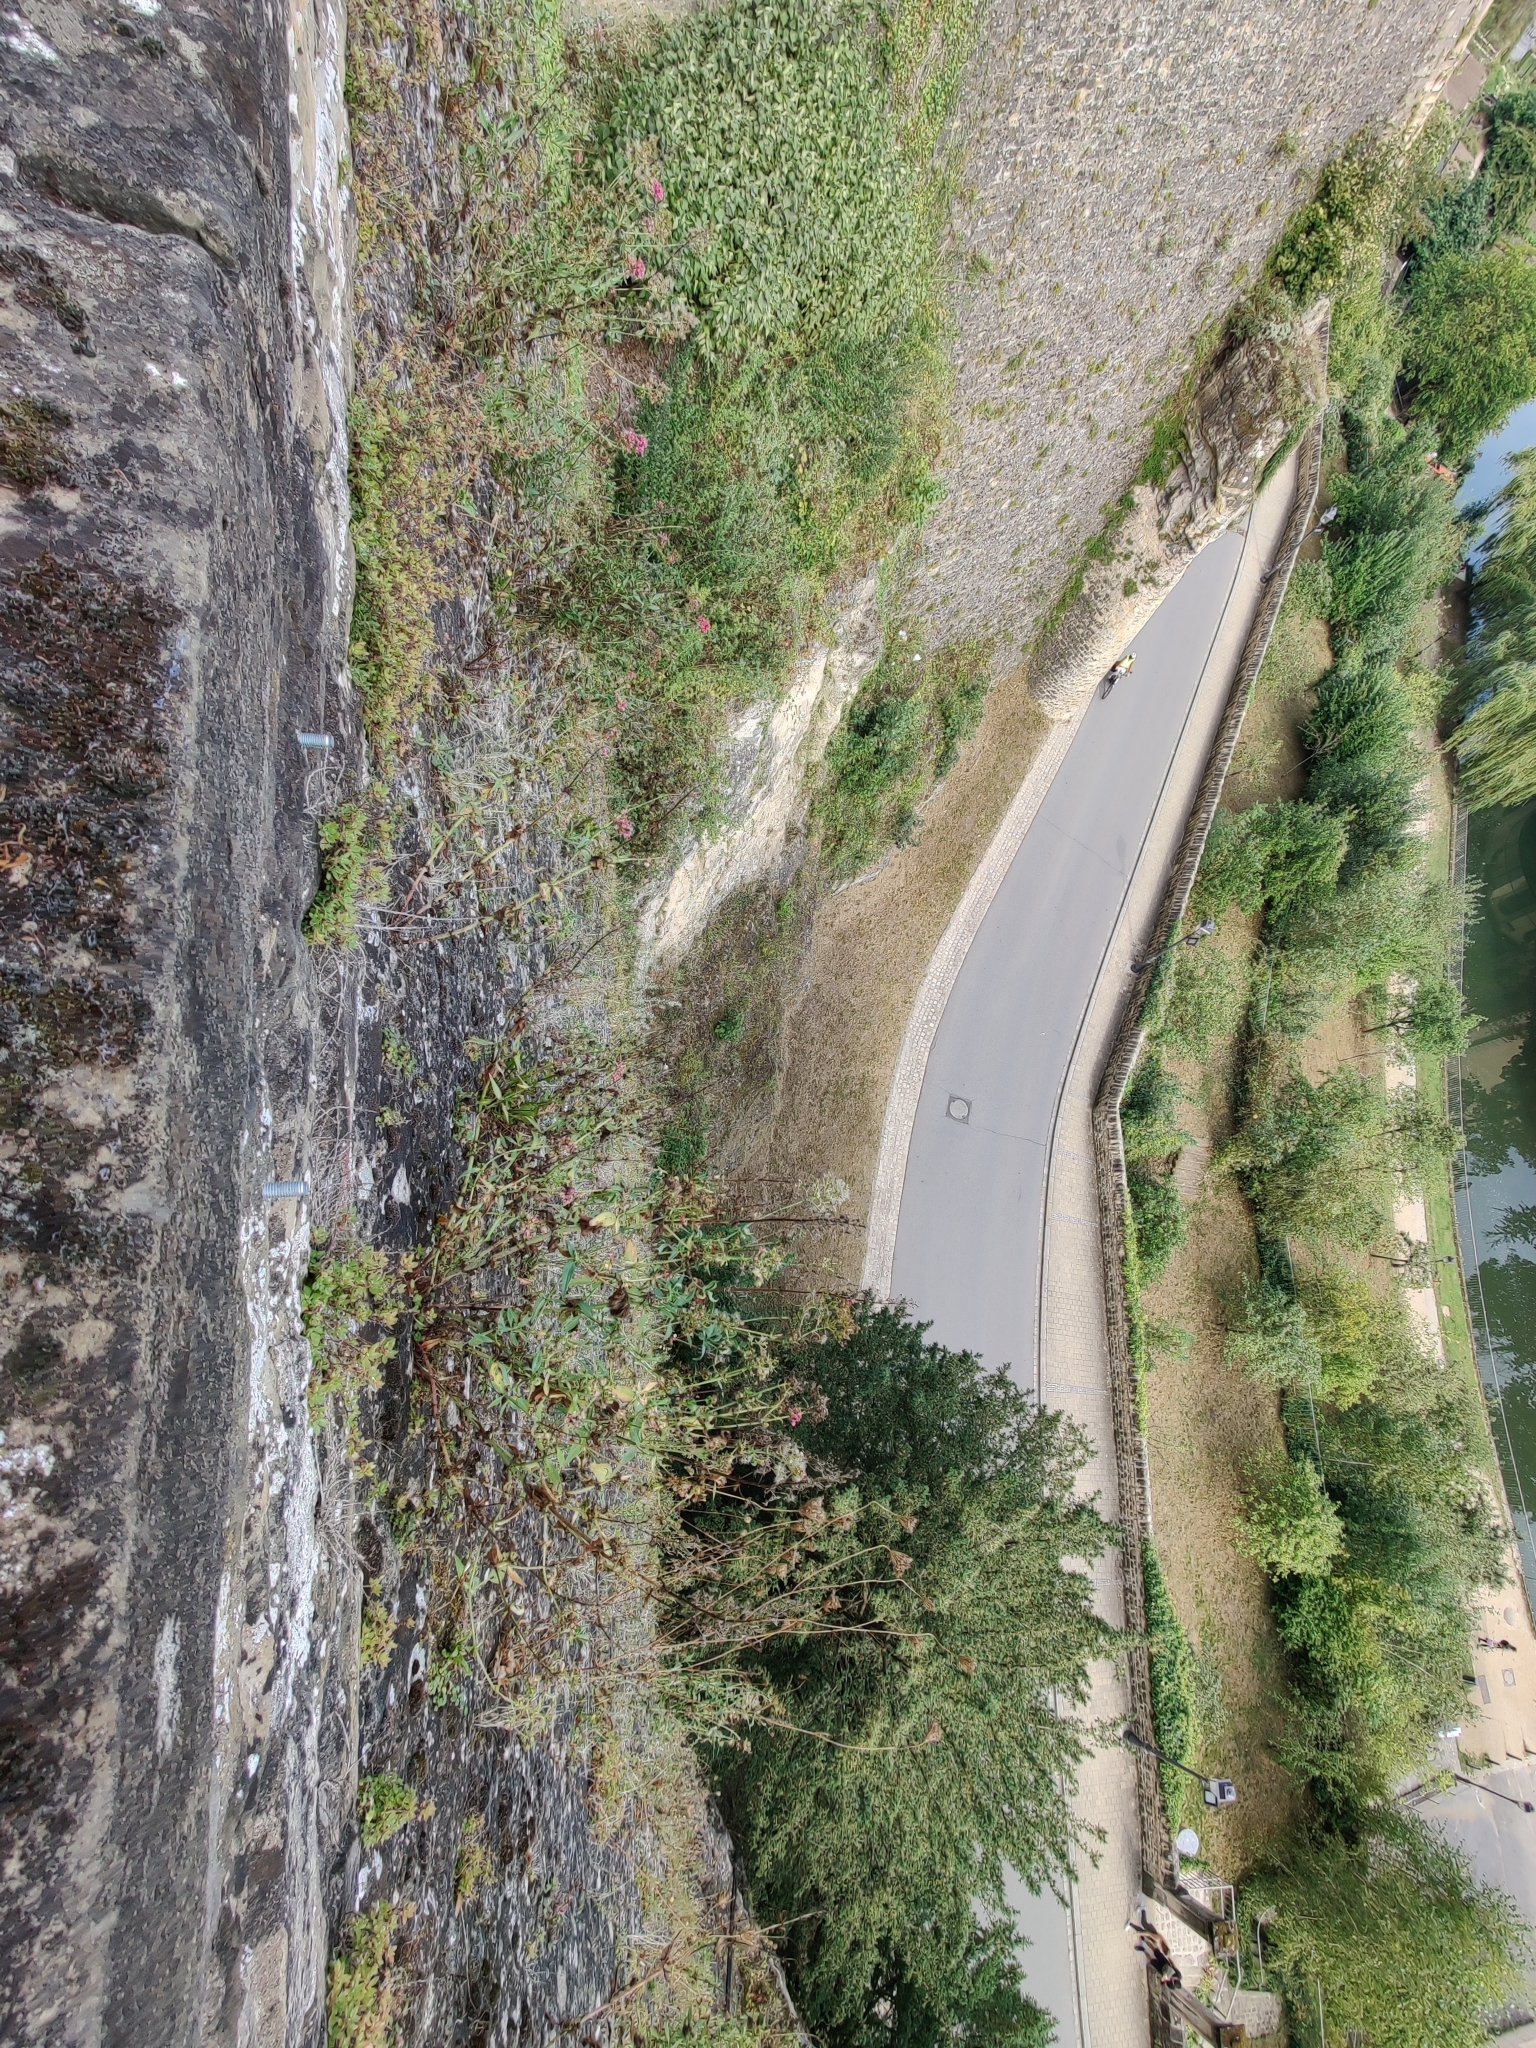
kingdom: Plantae
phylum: Tracheophyta
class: Magnoliopsida
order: Dipsacales
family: Caprifoliaceae
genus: Centranthus
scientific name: Centranthus ruber
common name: Red valerian
